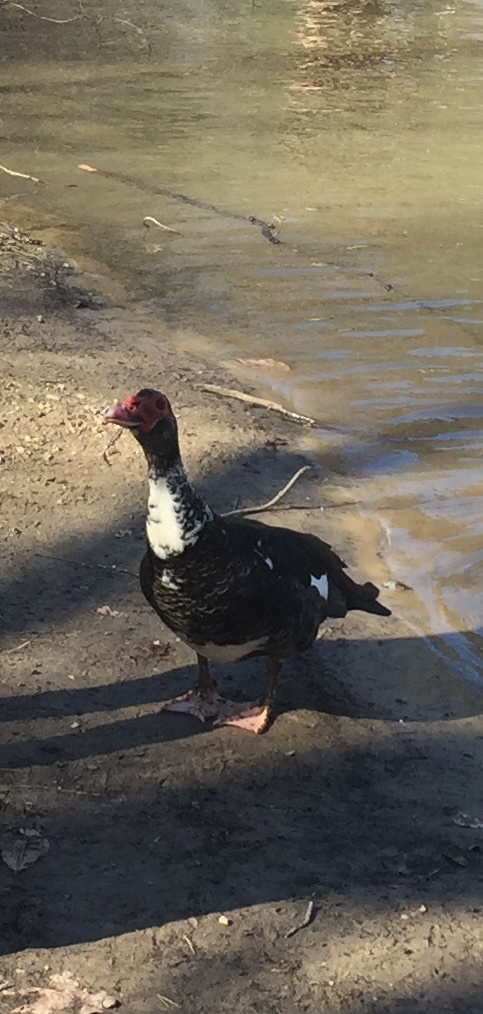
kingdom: Animalia
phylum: Chordata
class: Aves
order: Anseriformes
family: Anatidae
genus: Cairina
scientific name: Cairina moschata
